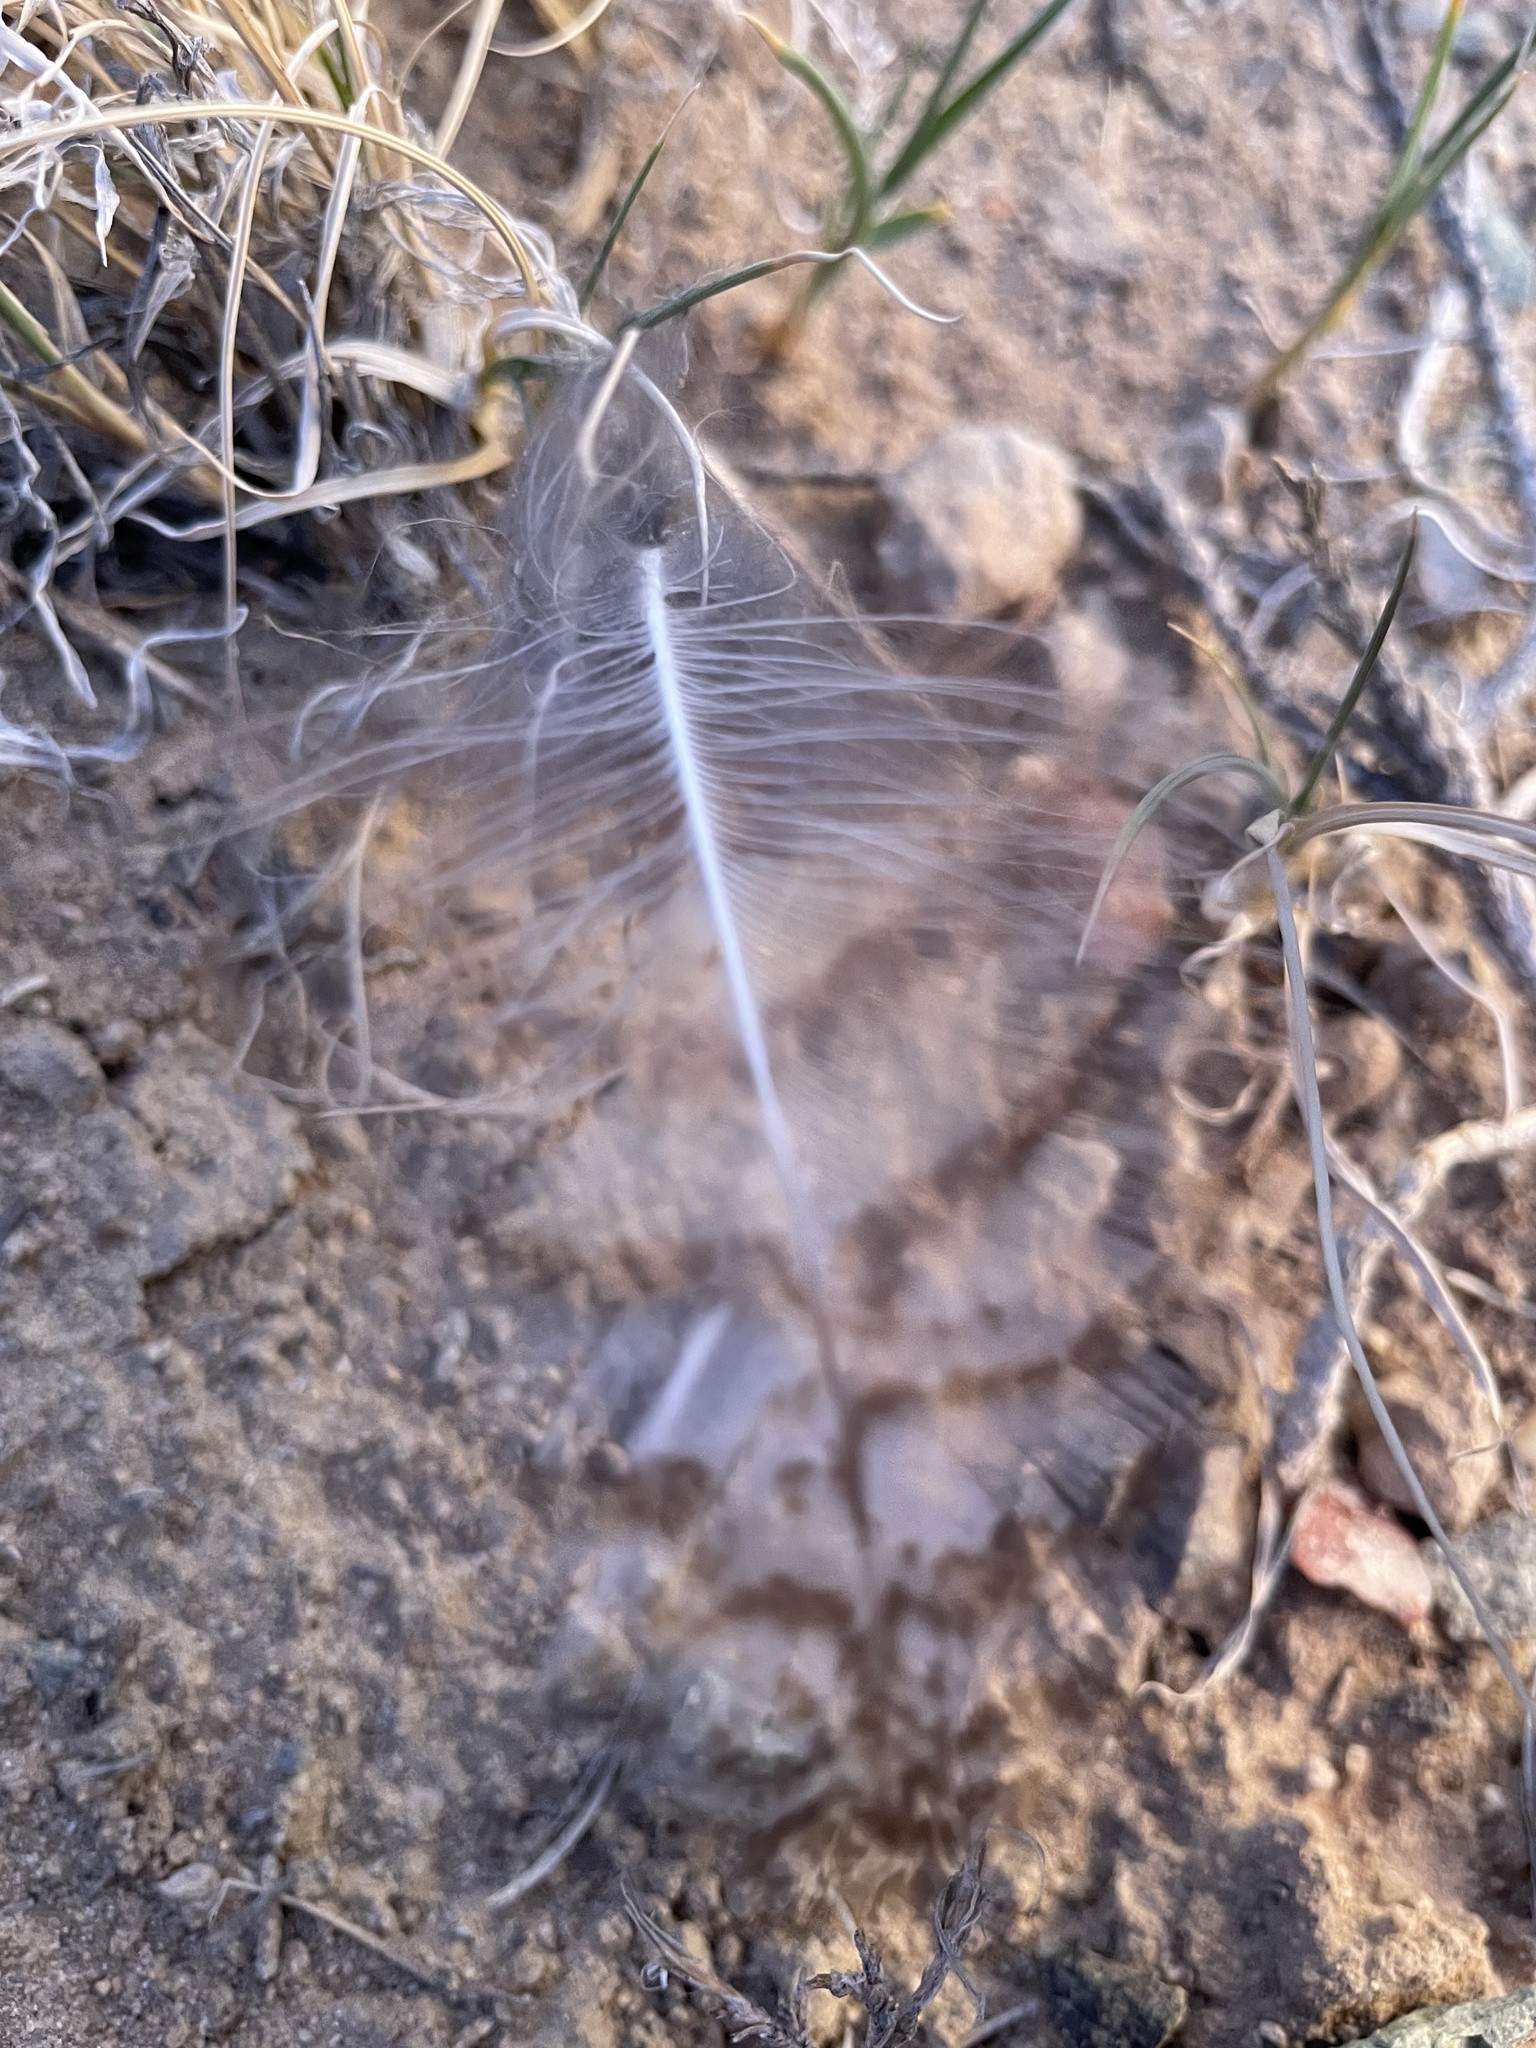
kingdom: Animalia
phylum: Chordata
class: Aves
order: Strigiformes
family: Strigidae
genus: Bubo
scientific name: Bubo virginianus
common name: Great horned owl
